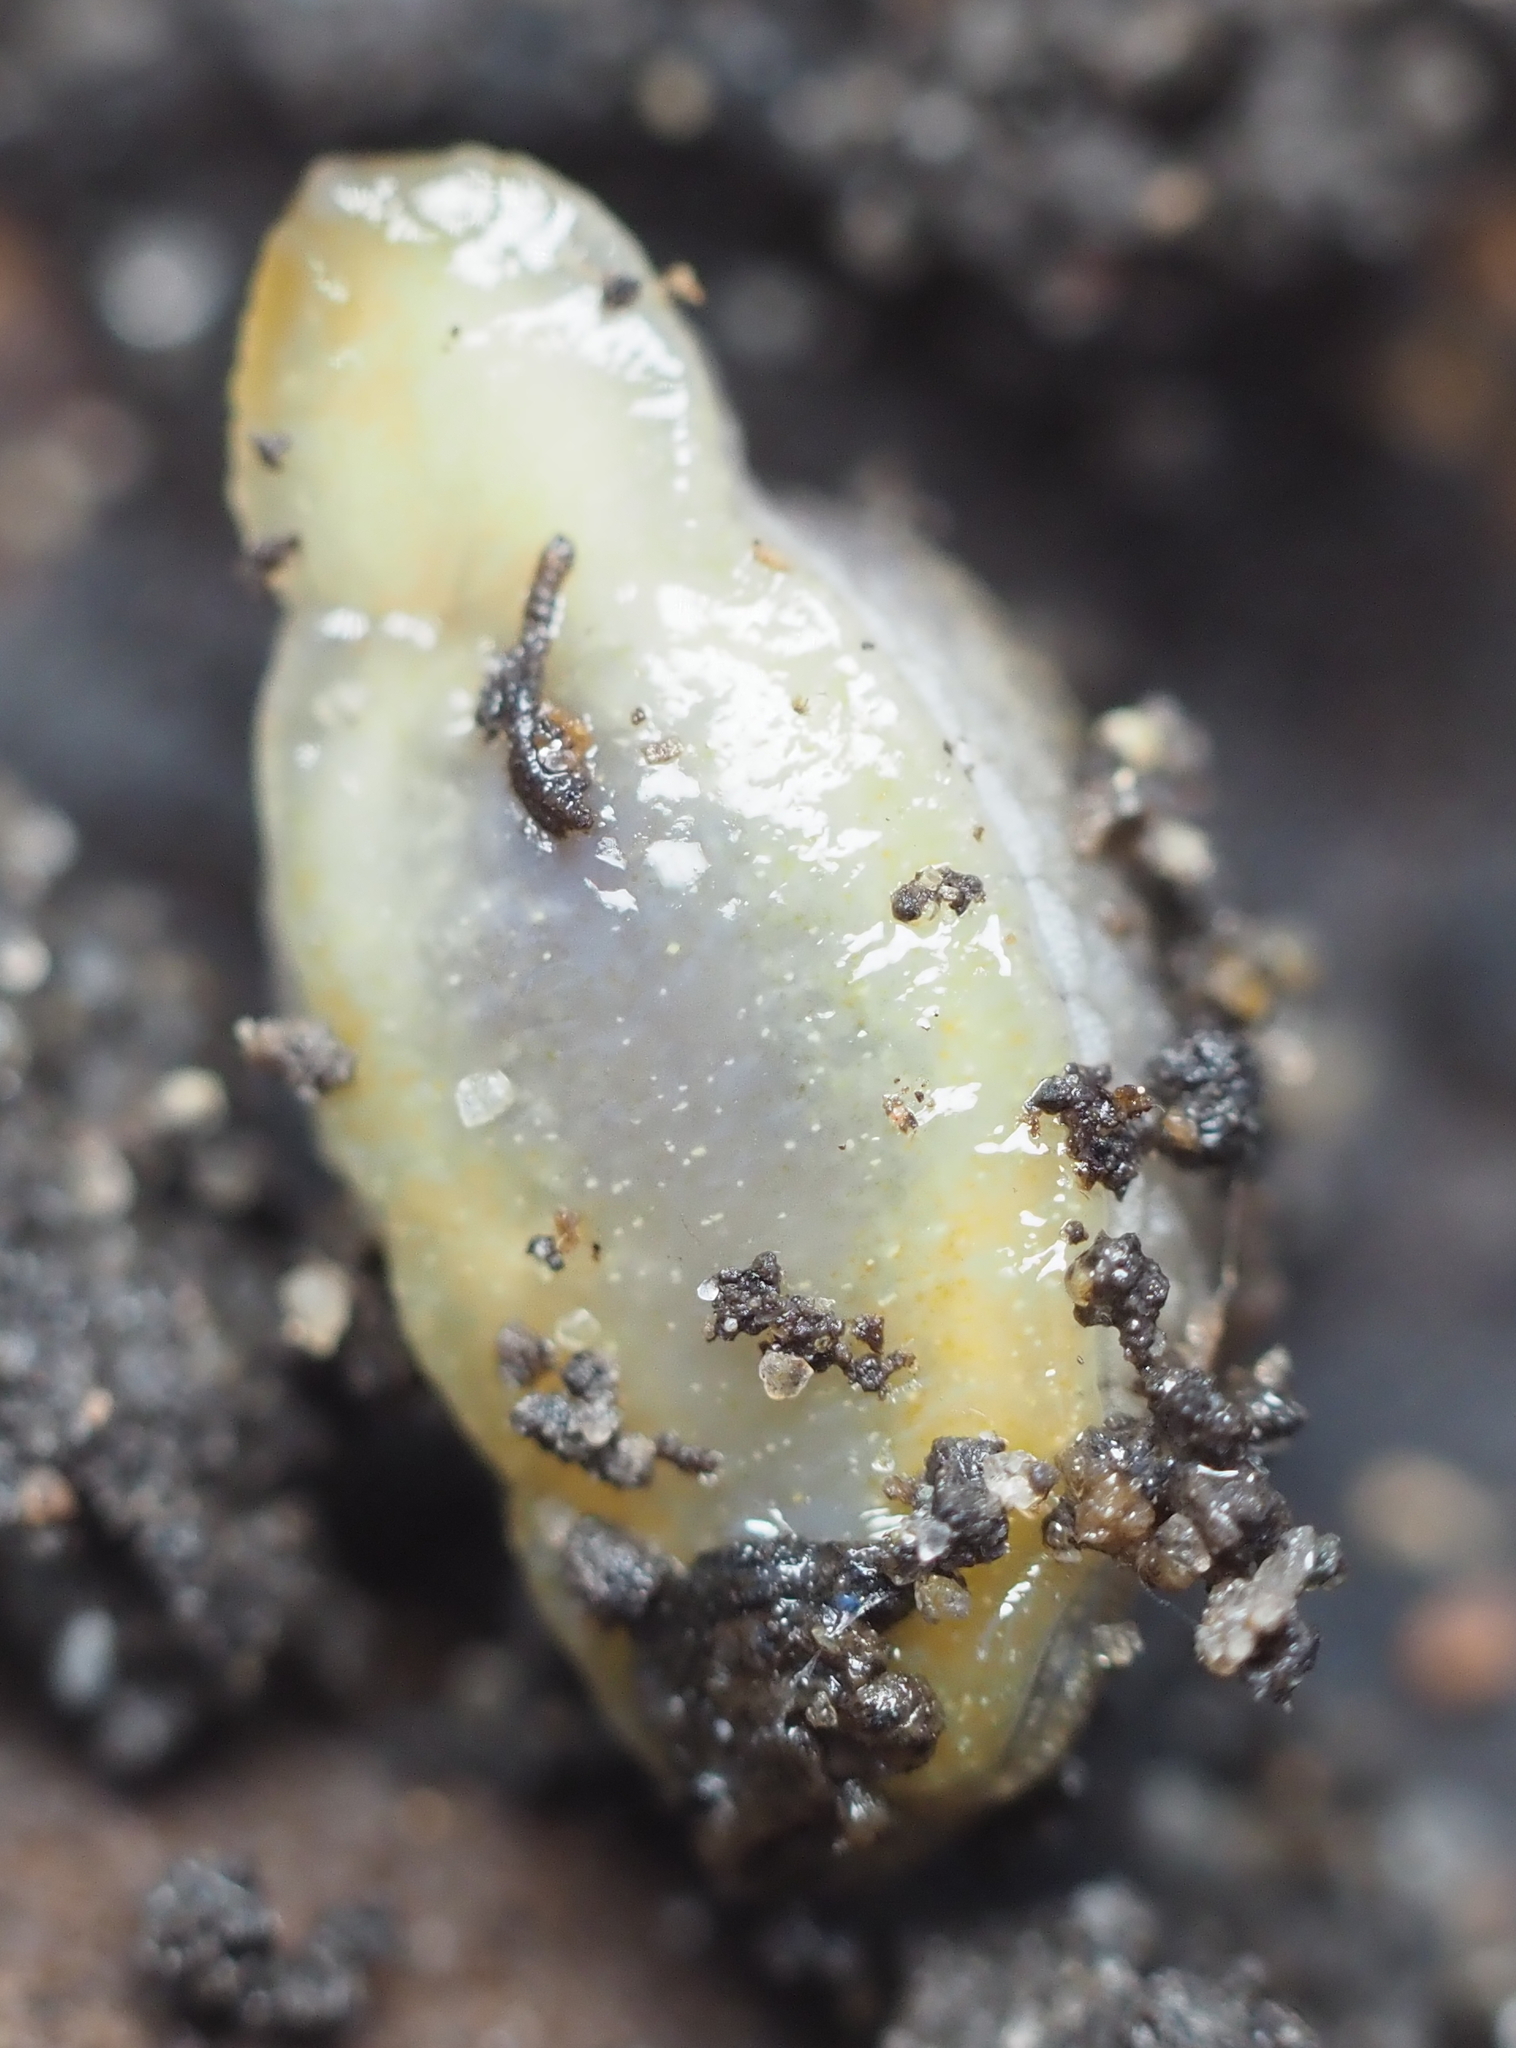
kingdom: Animalia
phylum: Mollusca
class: Gastropoda
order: Stylommatophora
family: Arionidae
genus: Arion
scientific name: Arion intermedius
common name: Hedgehog slug
